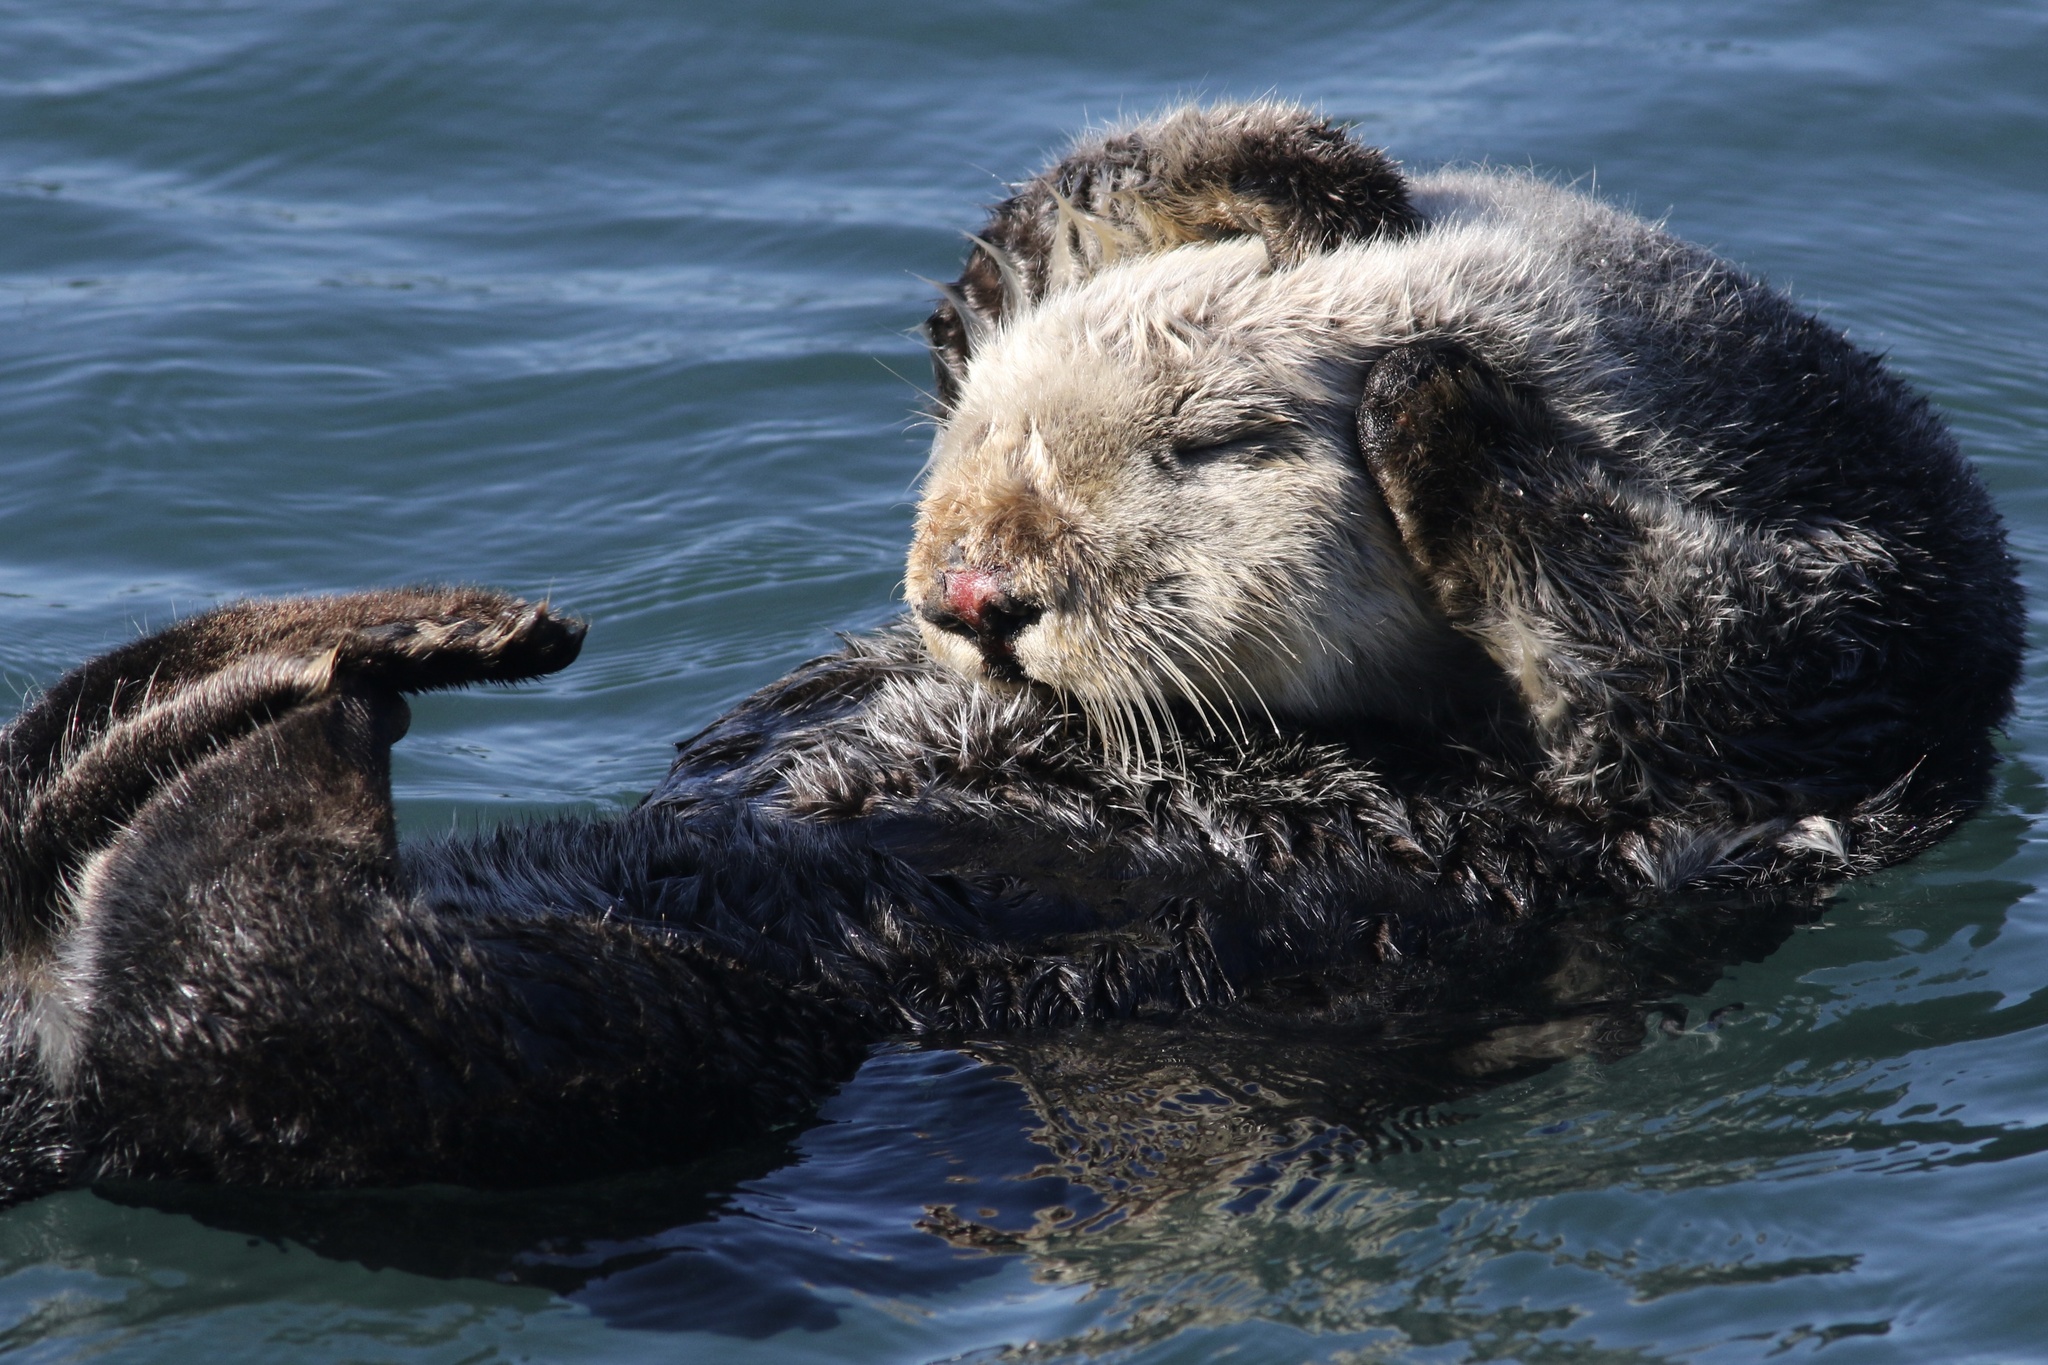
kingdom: Animalia
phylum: Chordata
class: Mammalia
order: Carnivora
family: Mustelidae
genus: Enhydra
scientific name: Enhydra lutris
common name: Sea otter
